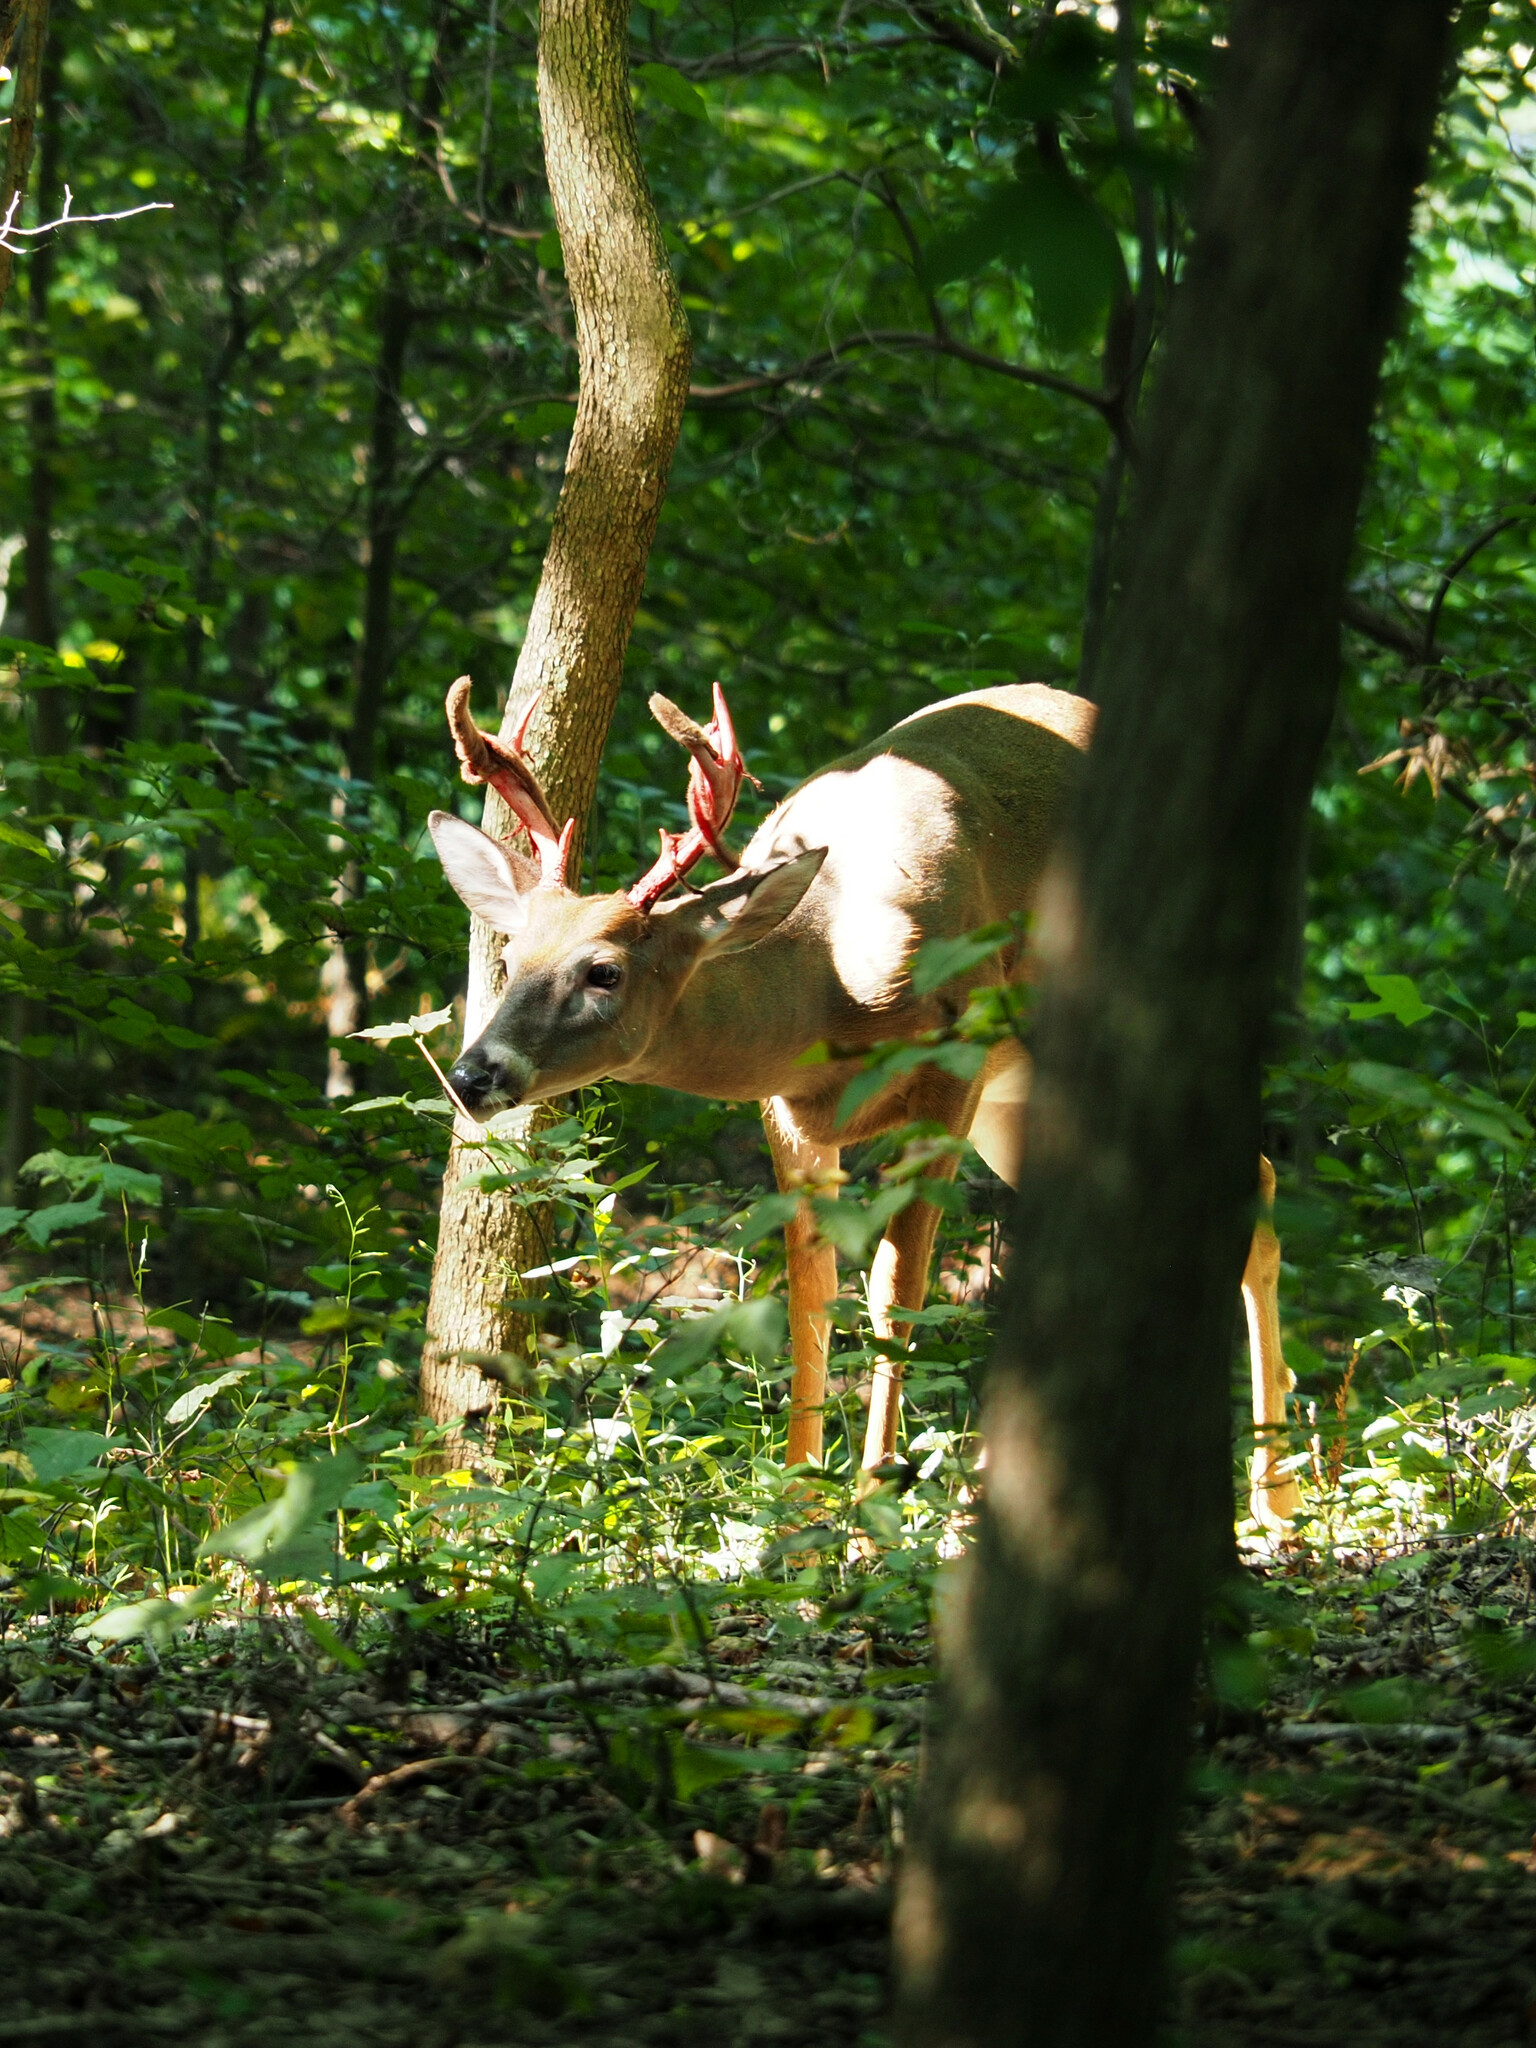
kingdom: Animalia
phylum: Chordata
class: Mammalia
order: Artiodactyla
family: Cervidae
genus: Odocoileus
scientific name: Odocoileus virginianus
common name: White-tailed deer
